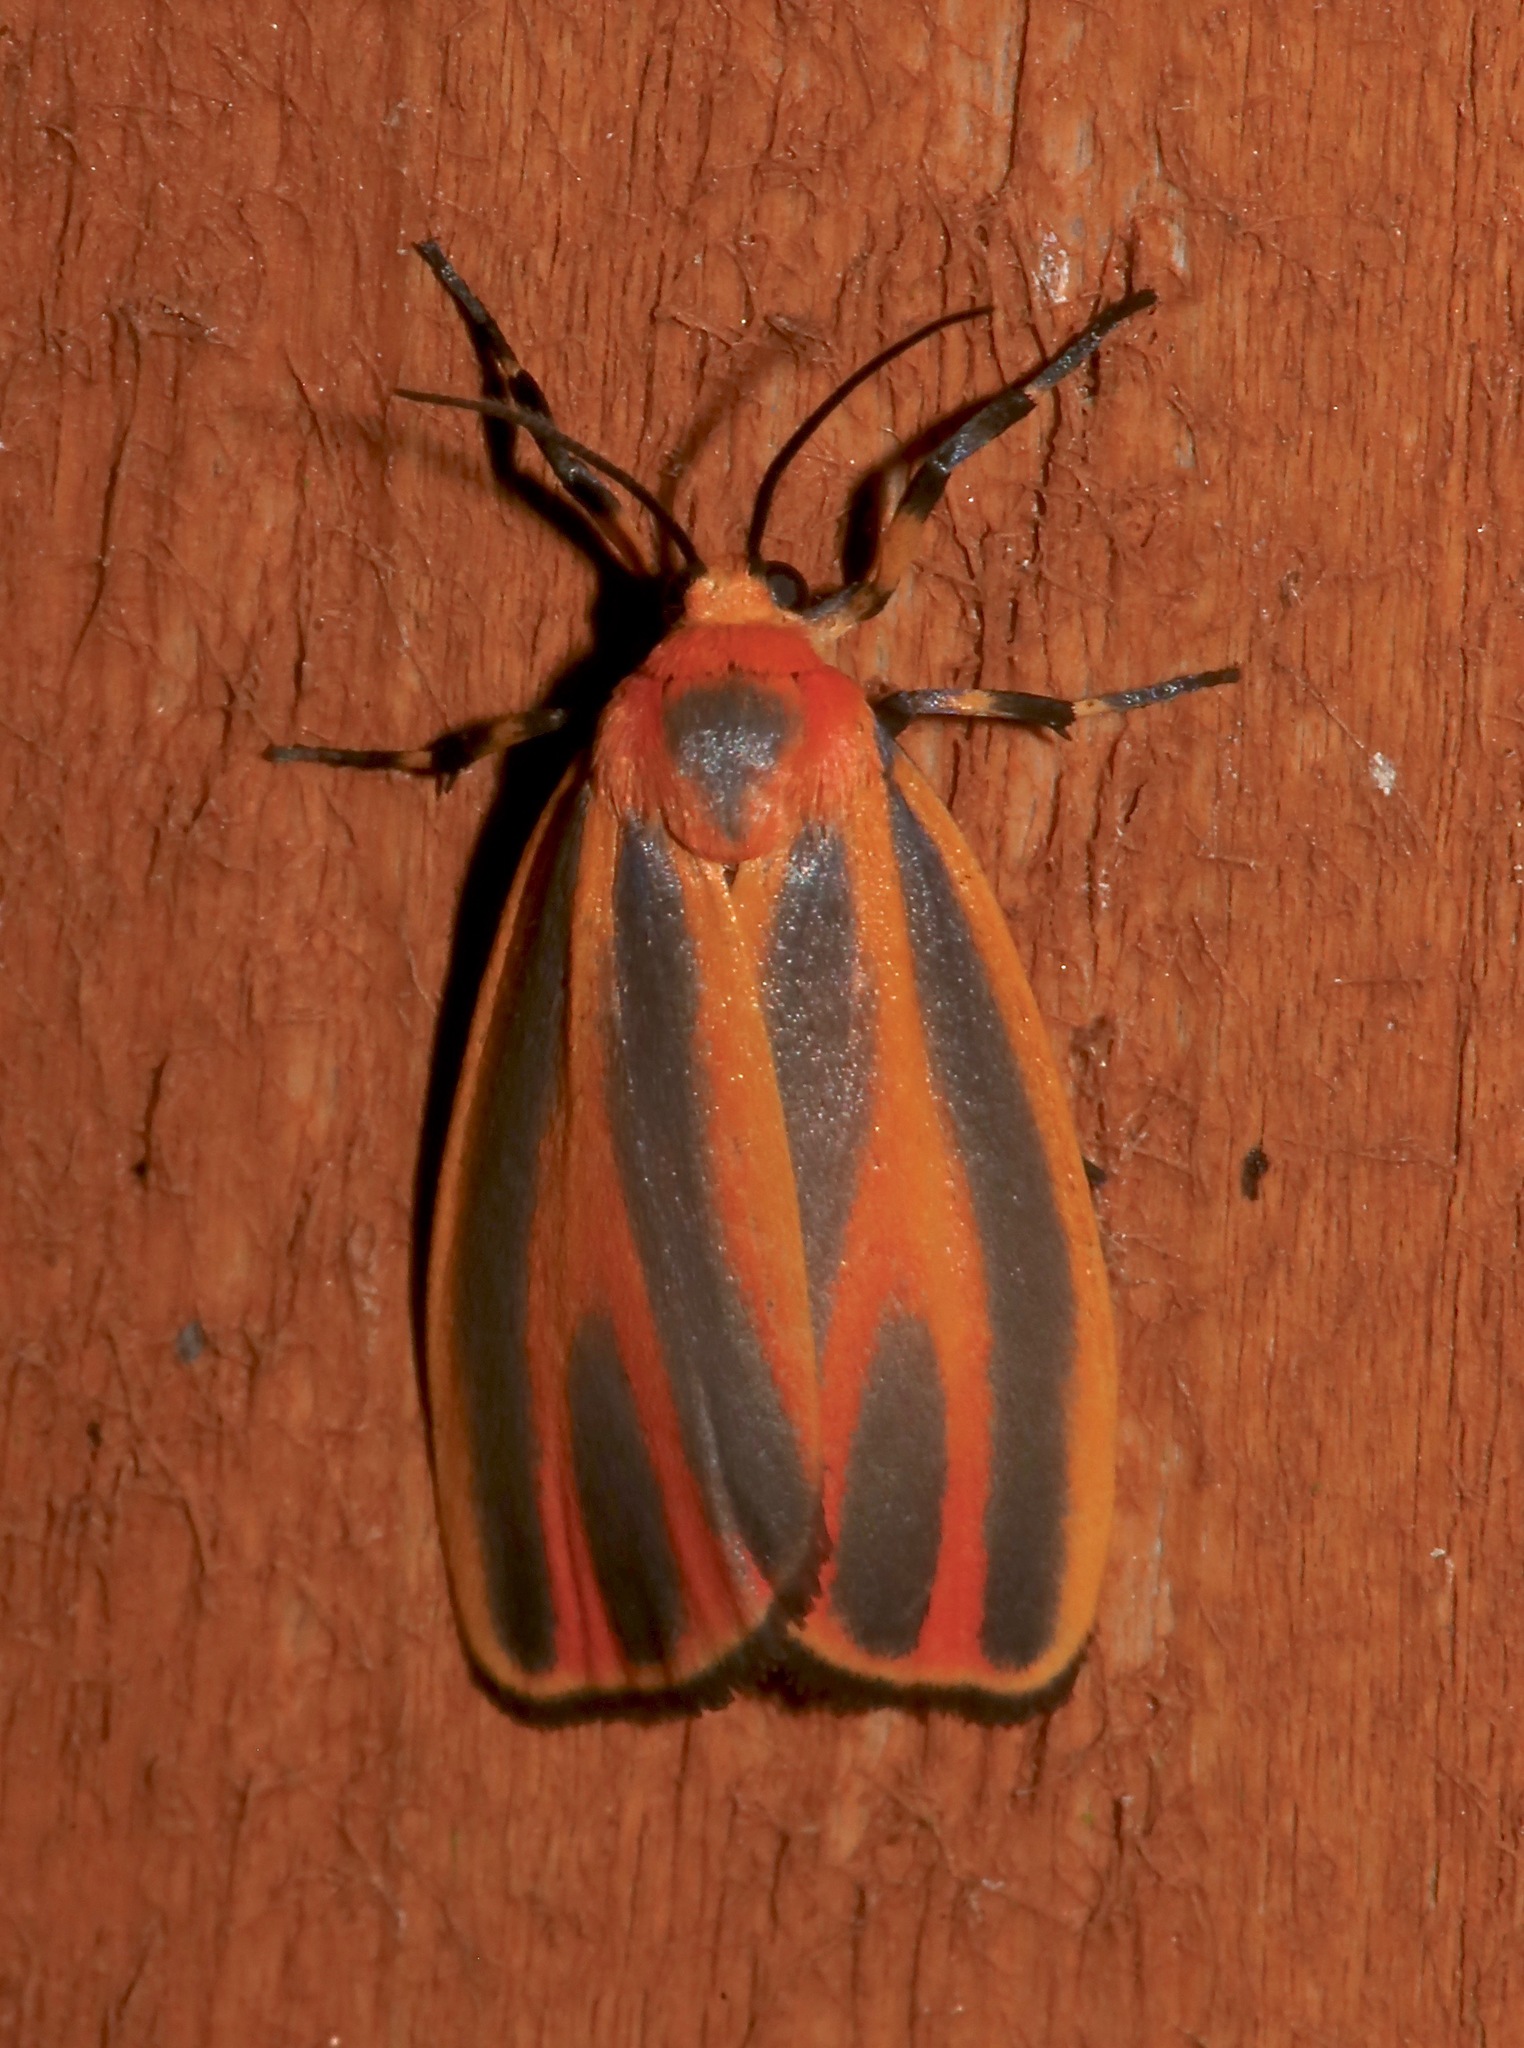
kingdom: Animalia
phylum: Arthropoda
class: Insecta
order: Lepidoptera
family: Erebidae
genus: Hypoprepia
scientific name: Hypoprepia fucosa
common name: Painted lichen moth
